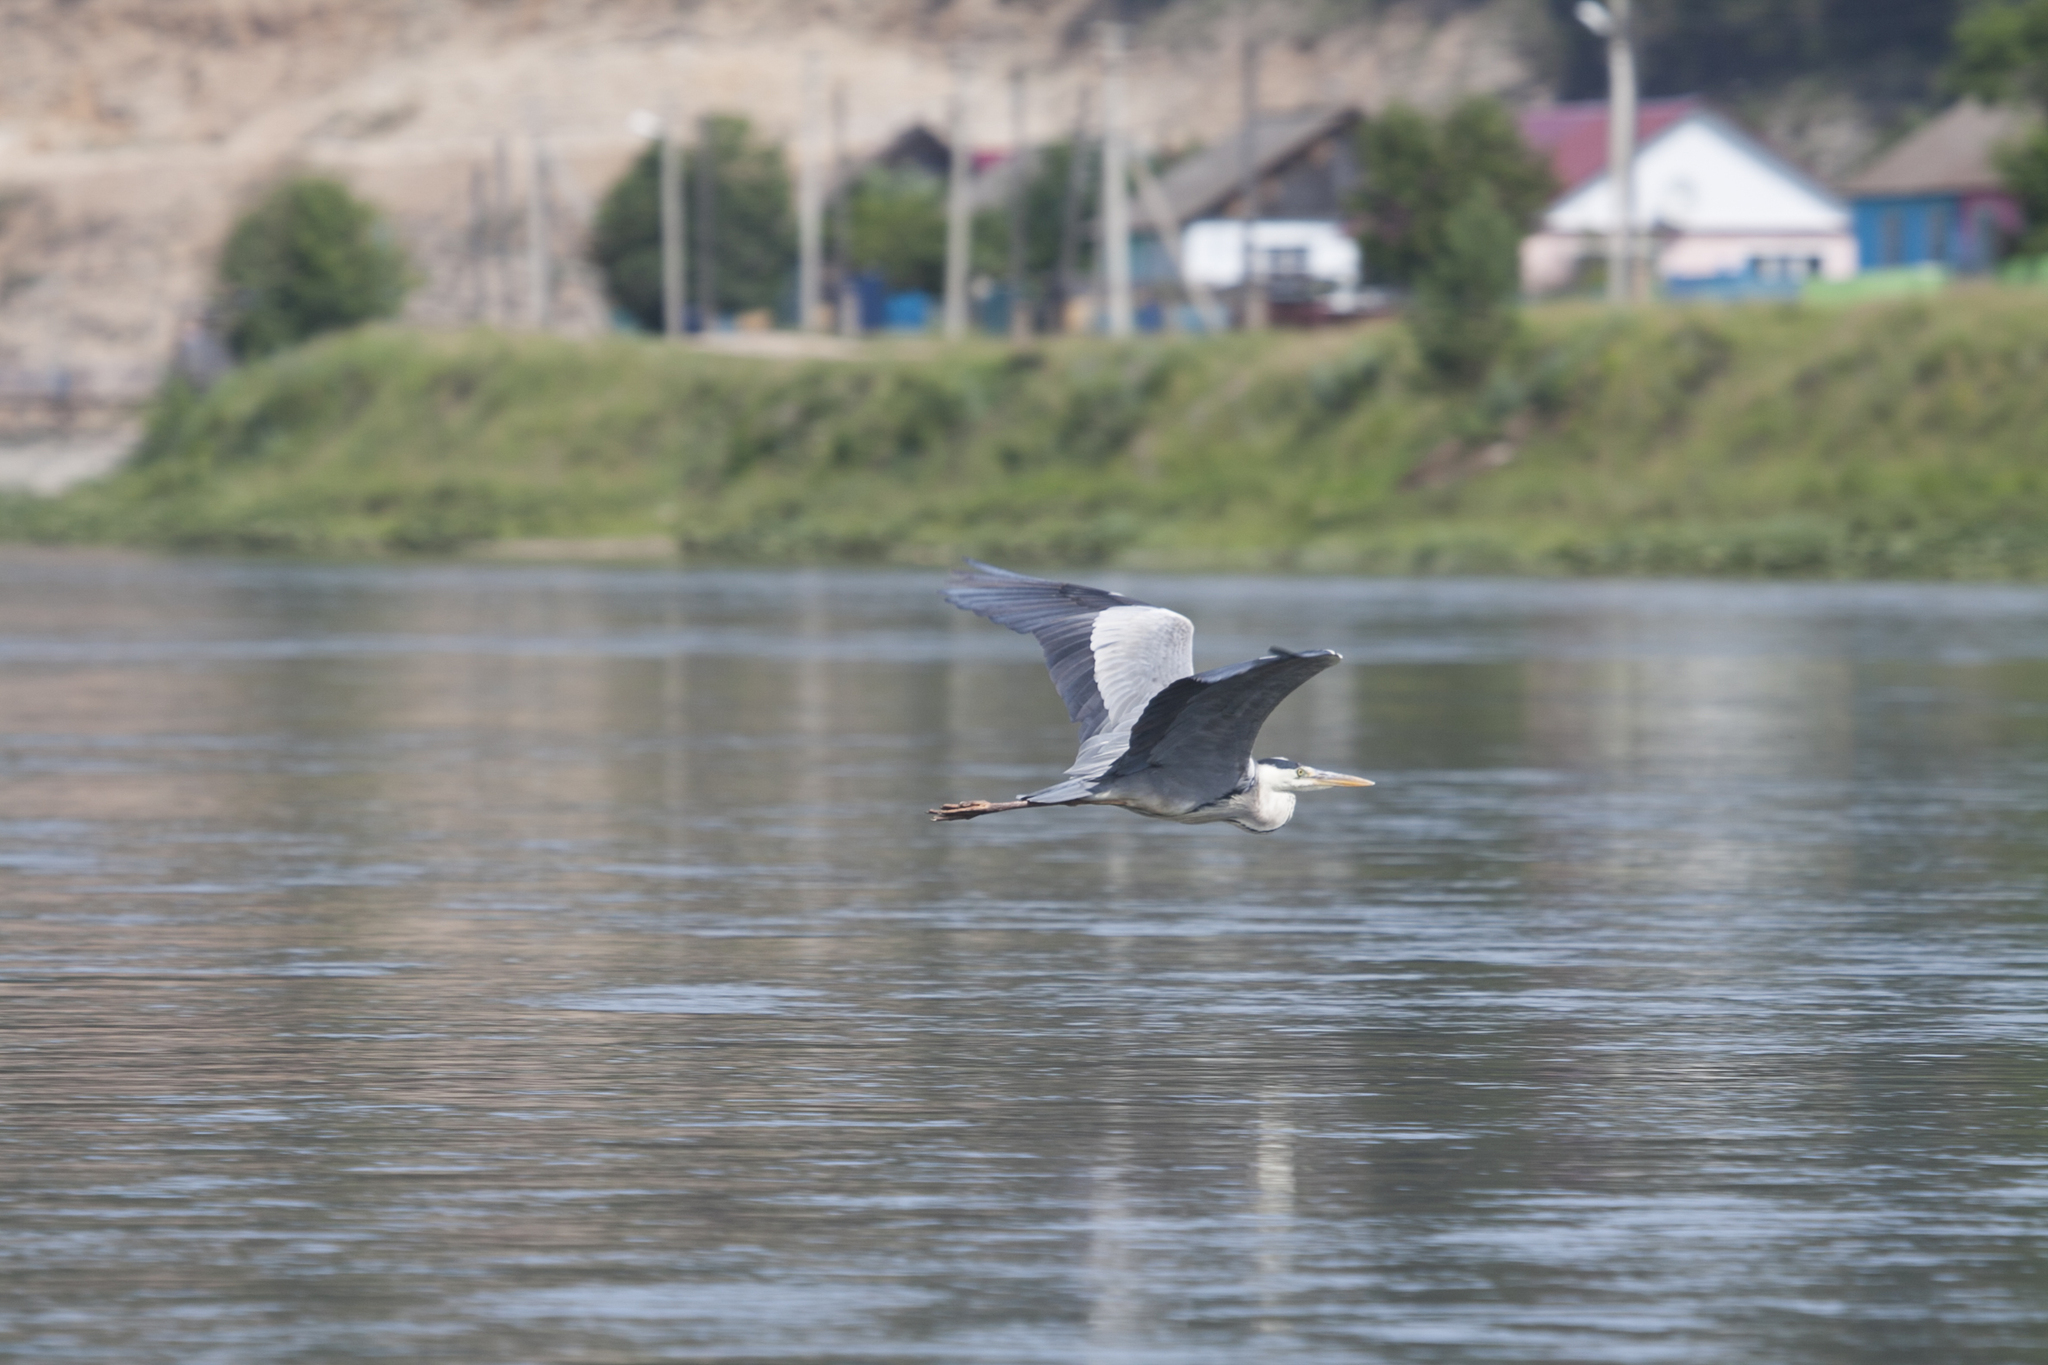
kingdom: Animalia
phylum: Chordata
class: Aves
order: Pelecaniformes
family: Ardeidae
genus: Ardea
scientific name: Ardea cinerea
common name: Grey heron
